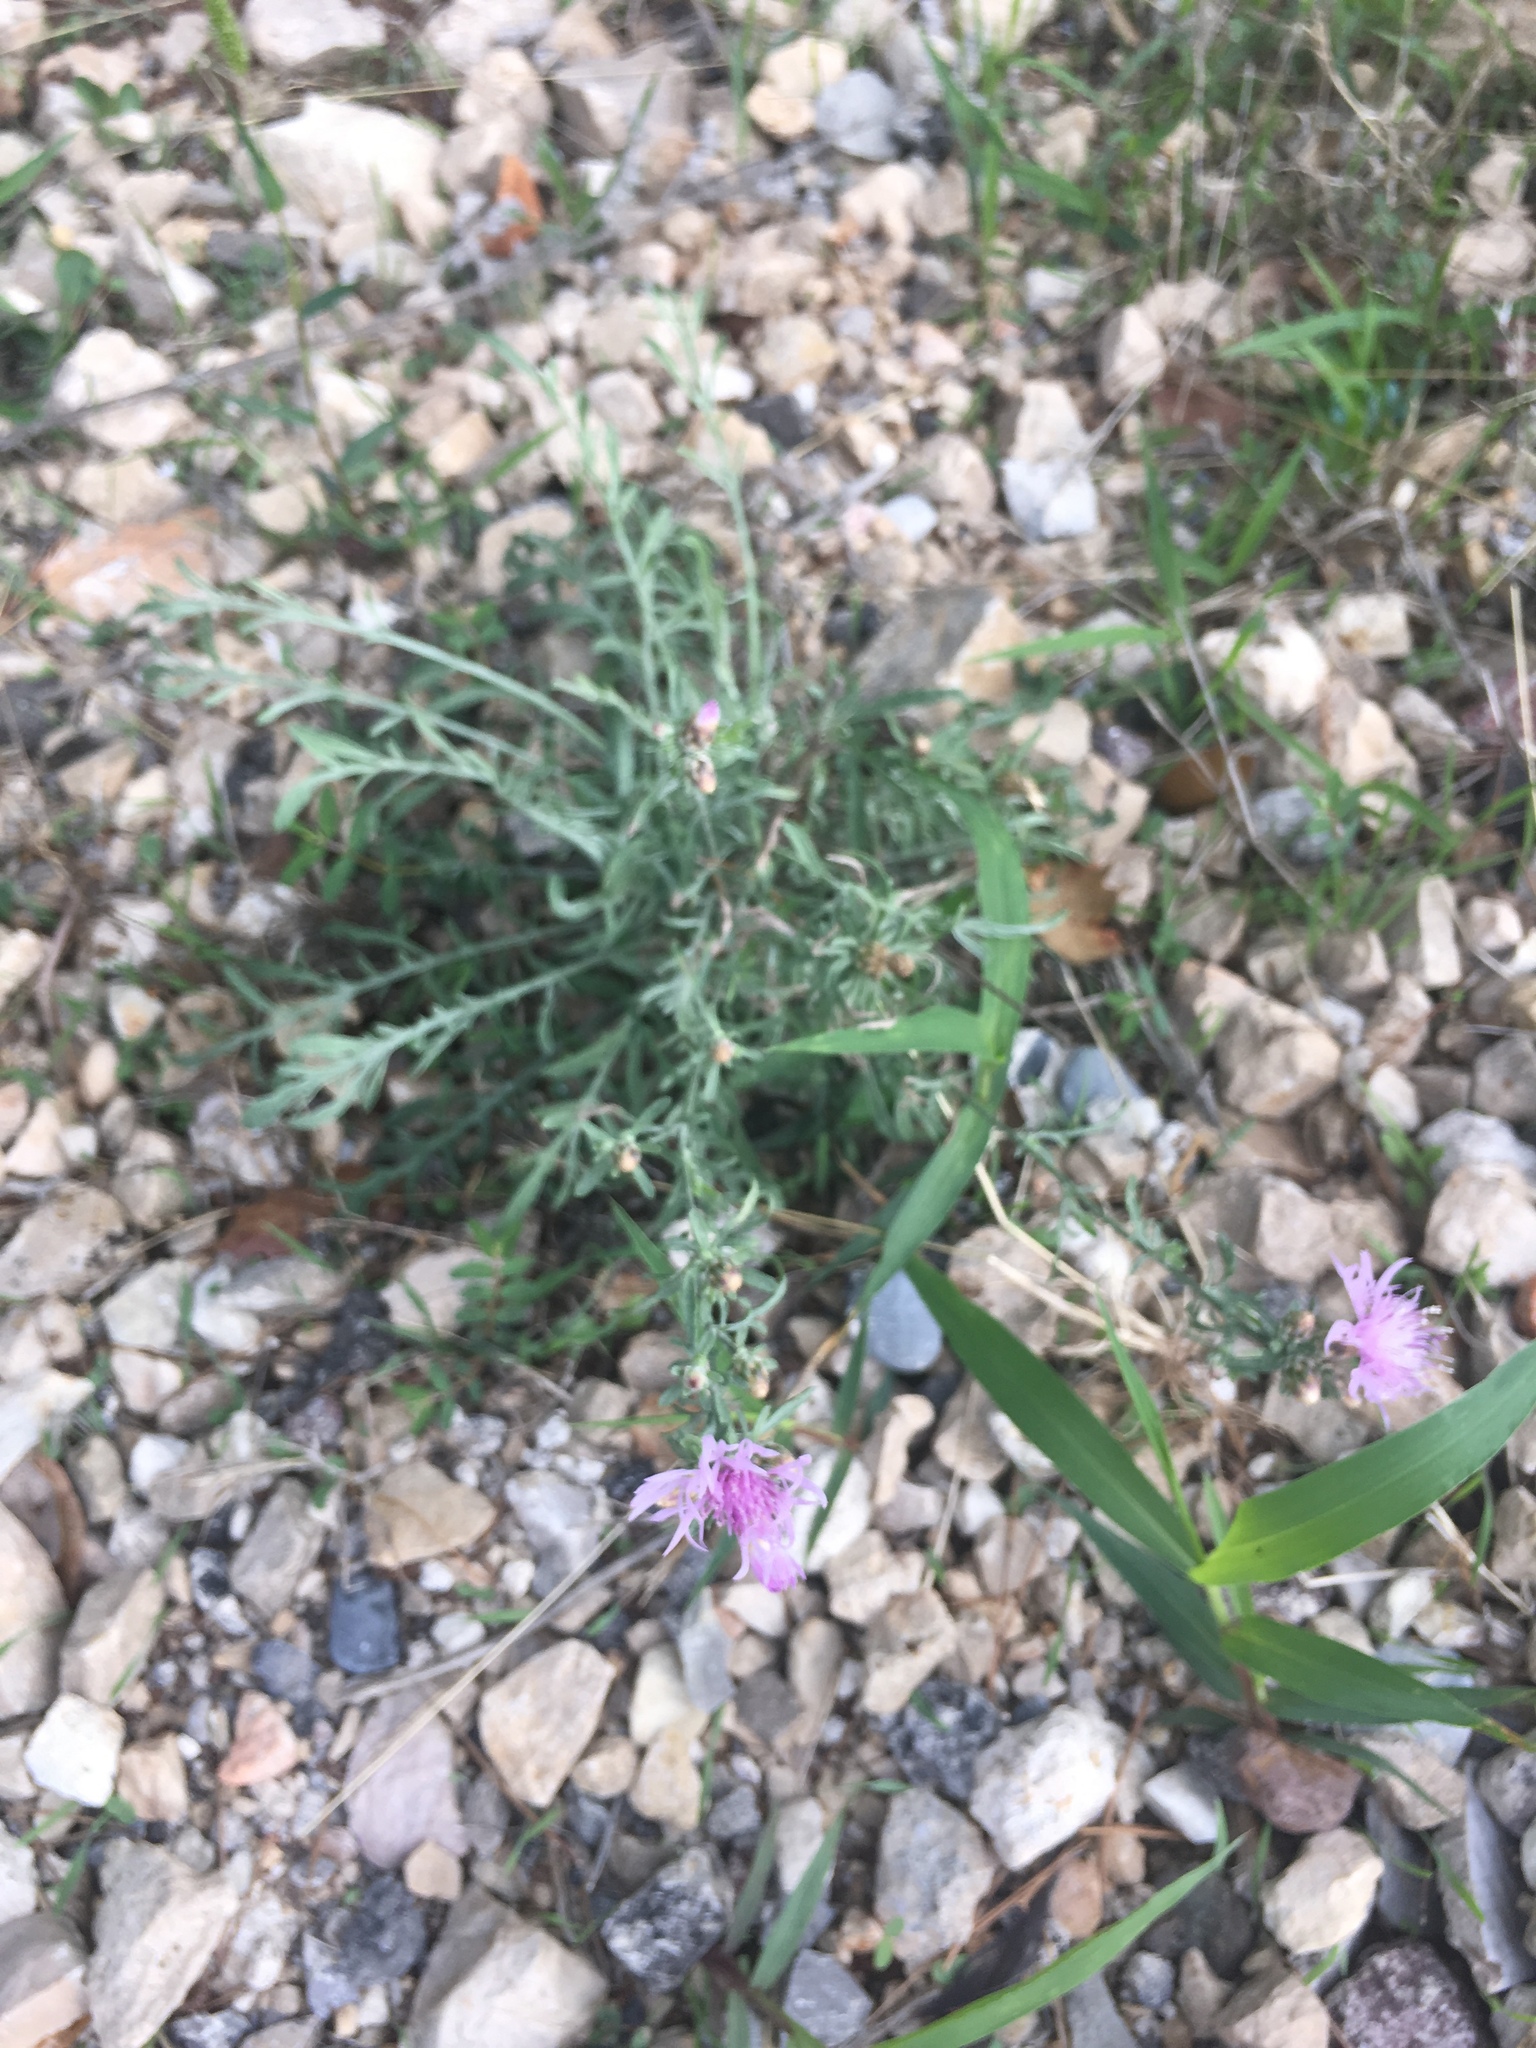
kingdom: Plantae
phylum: Tracheophyta
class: Magnoliopsida
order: Asterales
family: Asteraceae
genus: Centaurea
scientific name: Centaurea paniculata
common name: Jersey knapweed
